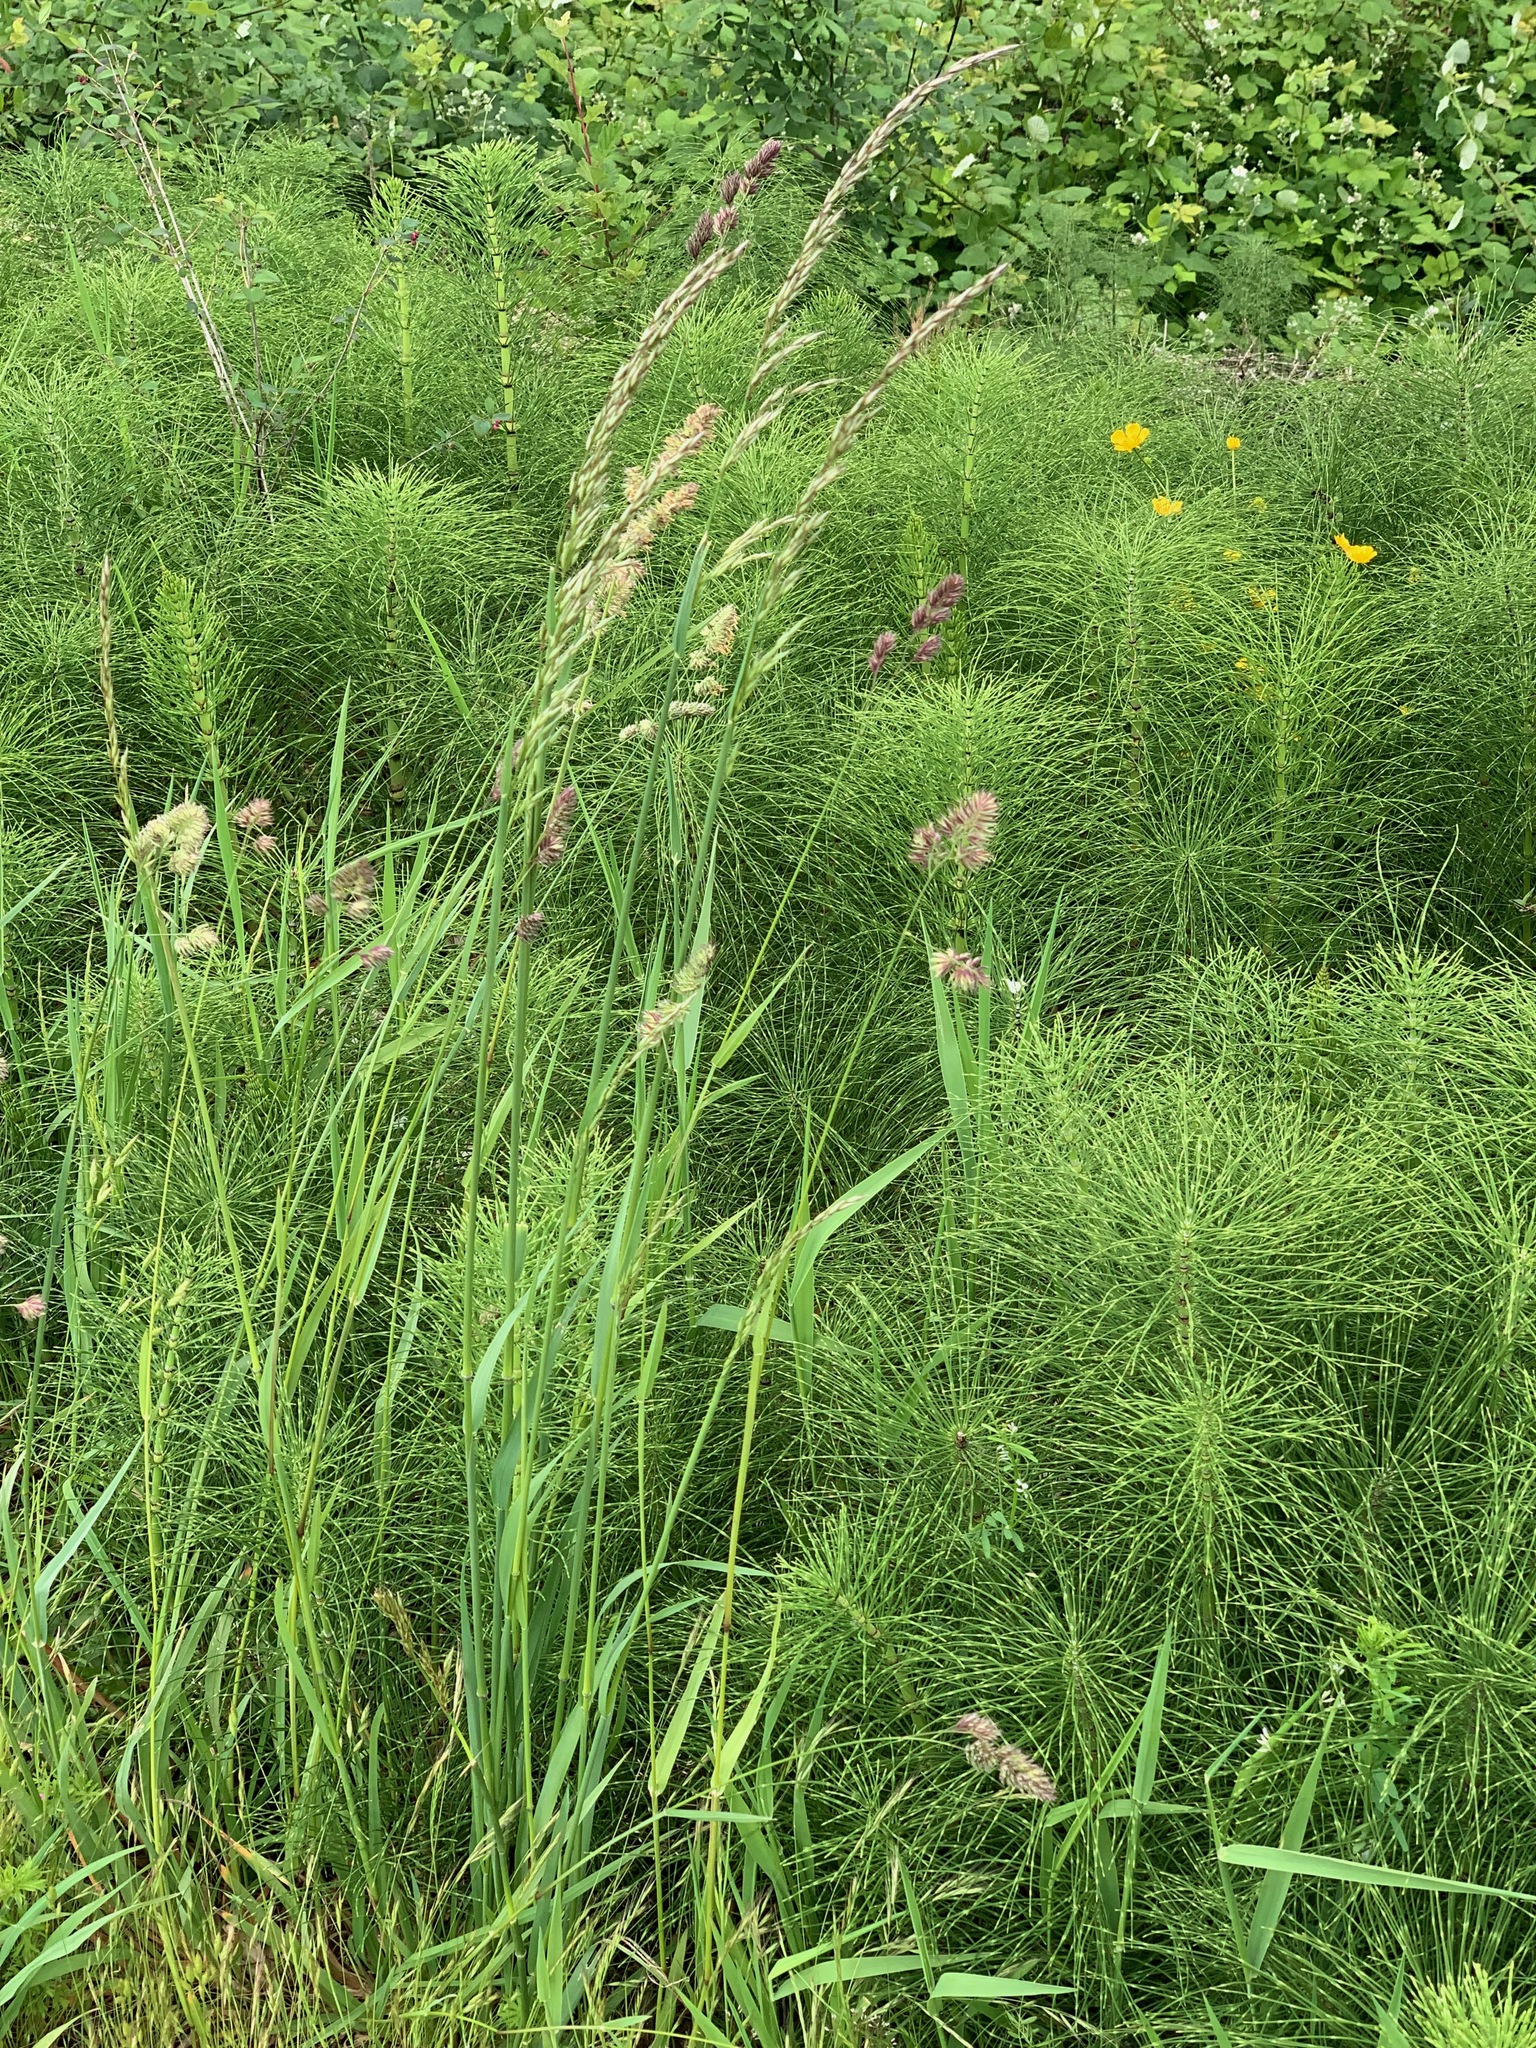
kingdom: Plantae
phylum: Tracheophyta
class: Liliopsida
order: Poales
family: Poaceae
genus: Arrhenatherum
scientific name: Arrhenatherum elatius
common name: Tall oatgrass
